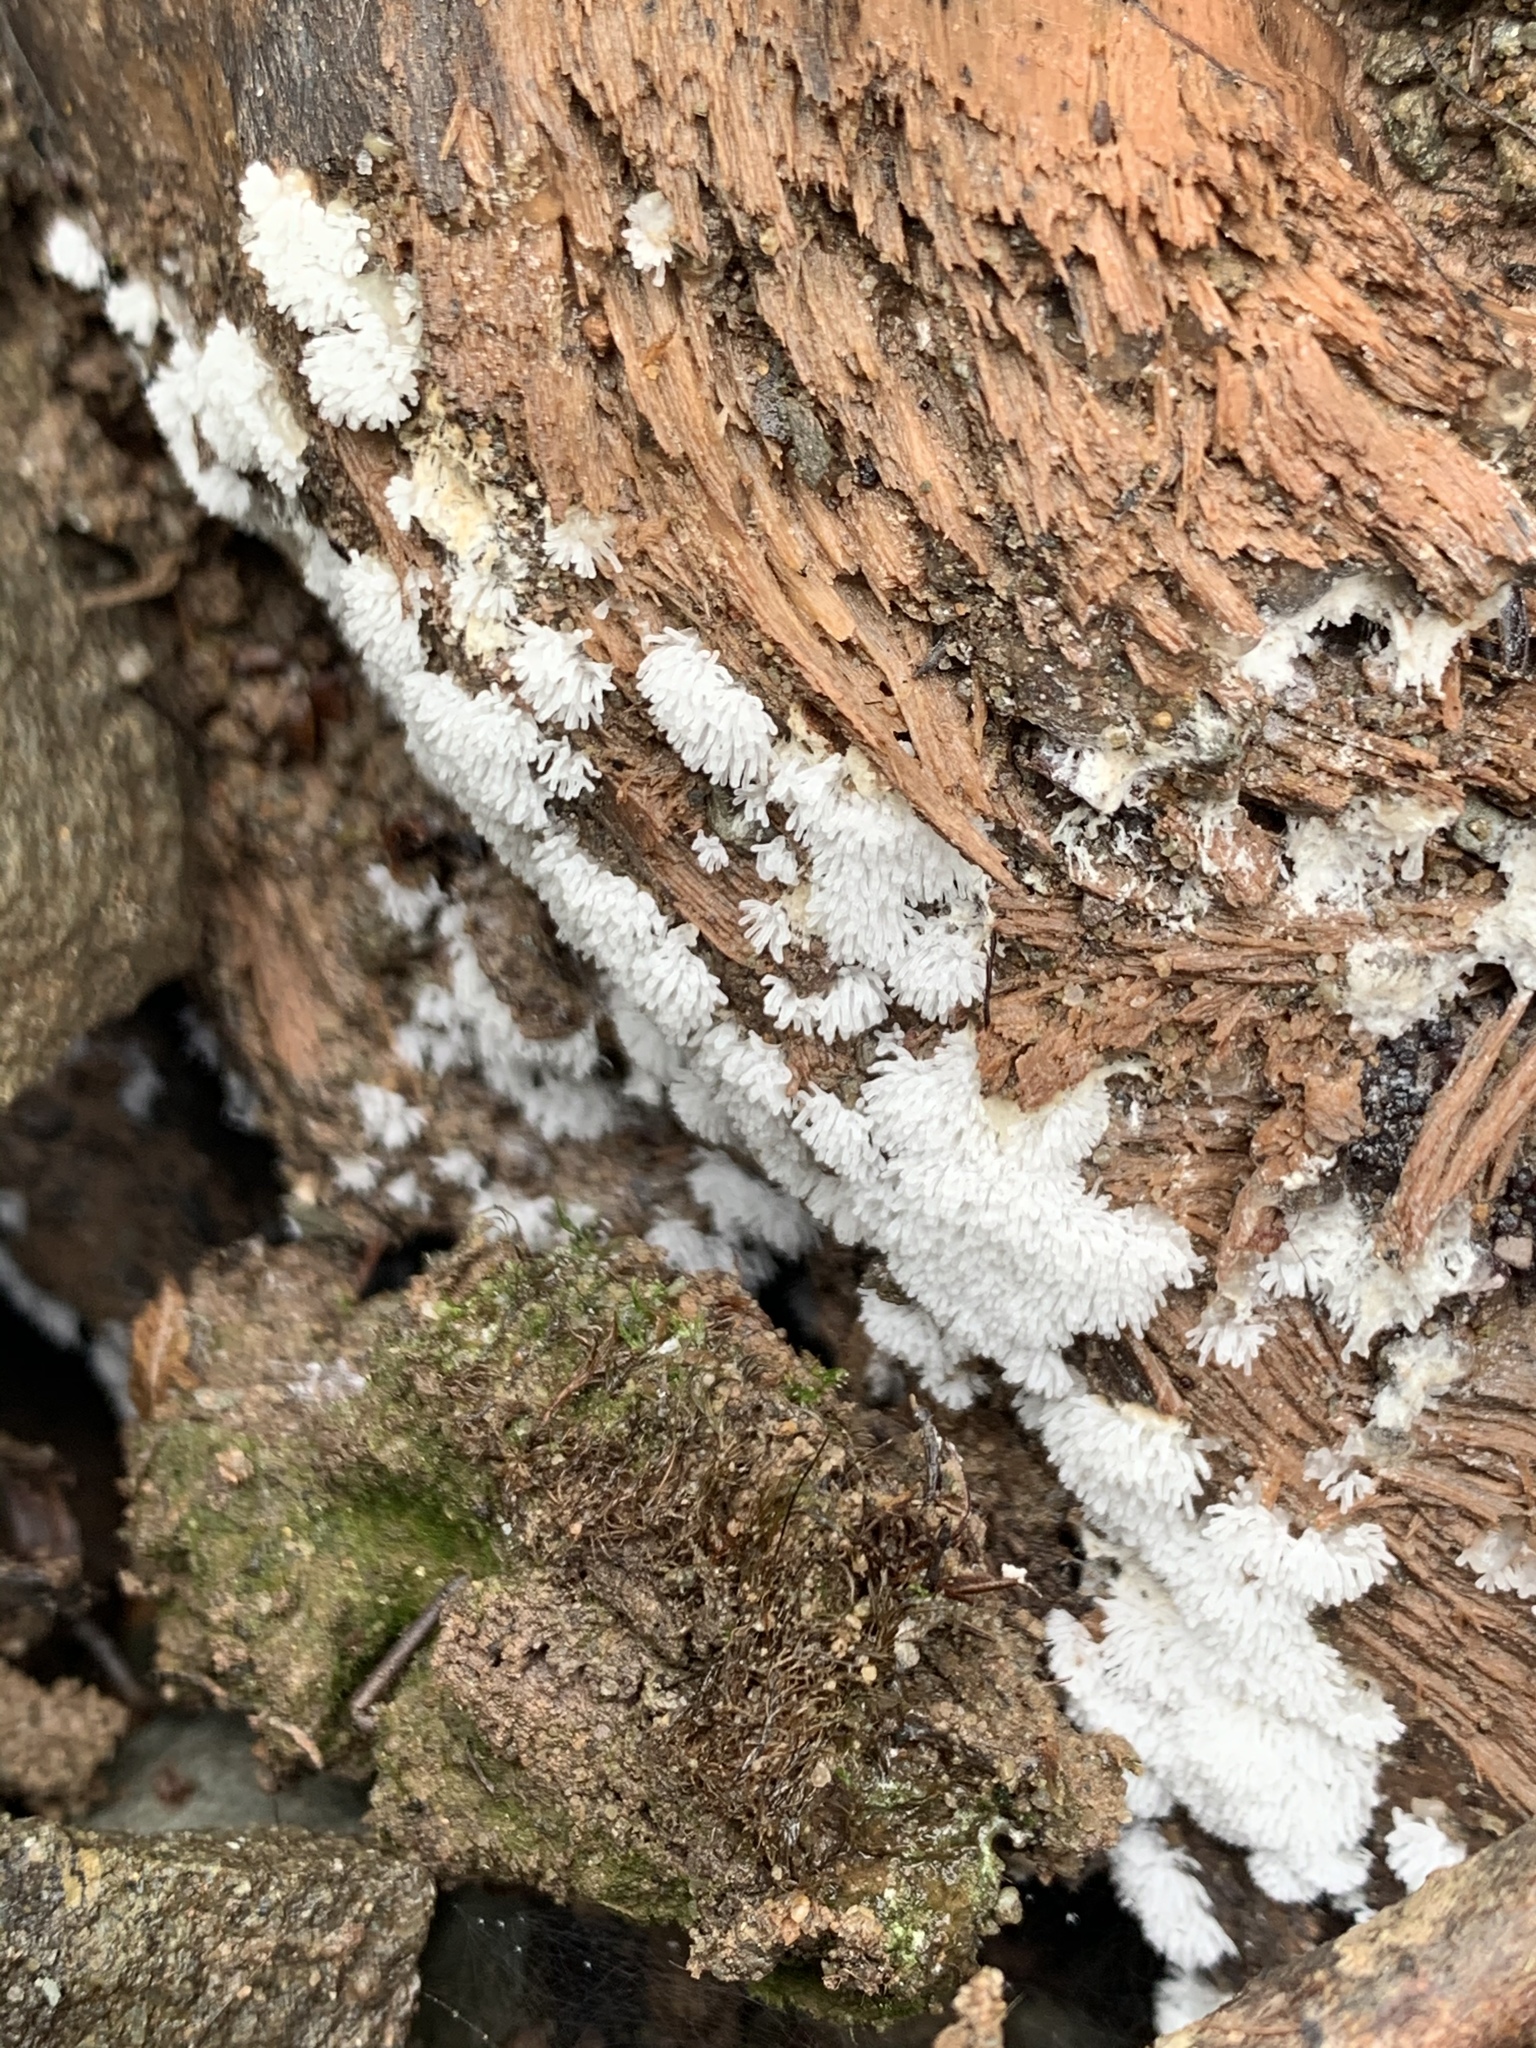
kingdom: Protozoa
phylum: Mycetozoa
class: Protosteliomycetes
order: Ceratiomyxales
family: Ceratiomyxaceae
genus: Ceratiomyxa
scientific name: Ceratiomyxa fruticulosa
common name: Honeycomb coral slime mold
